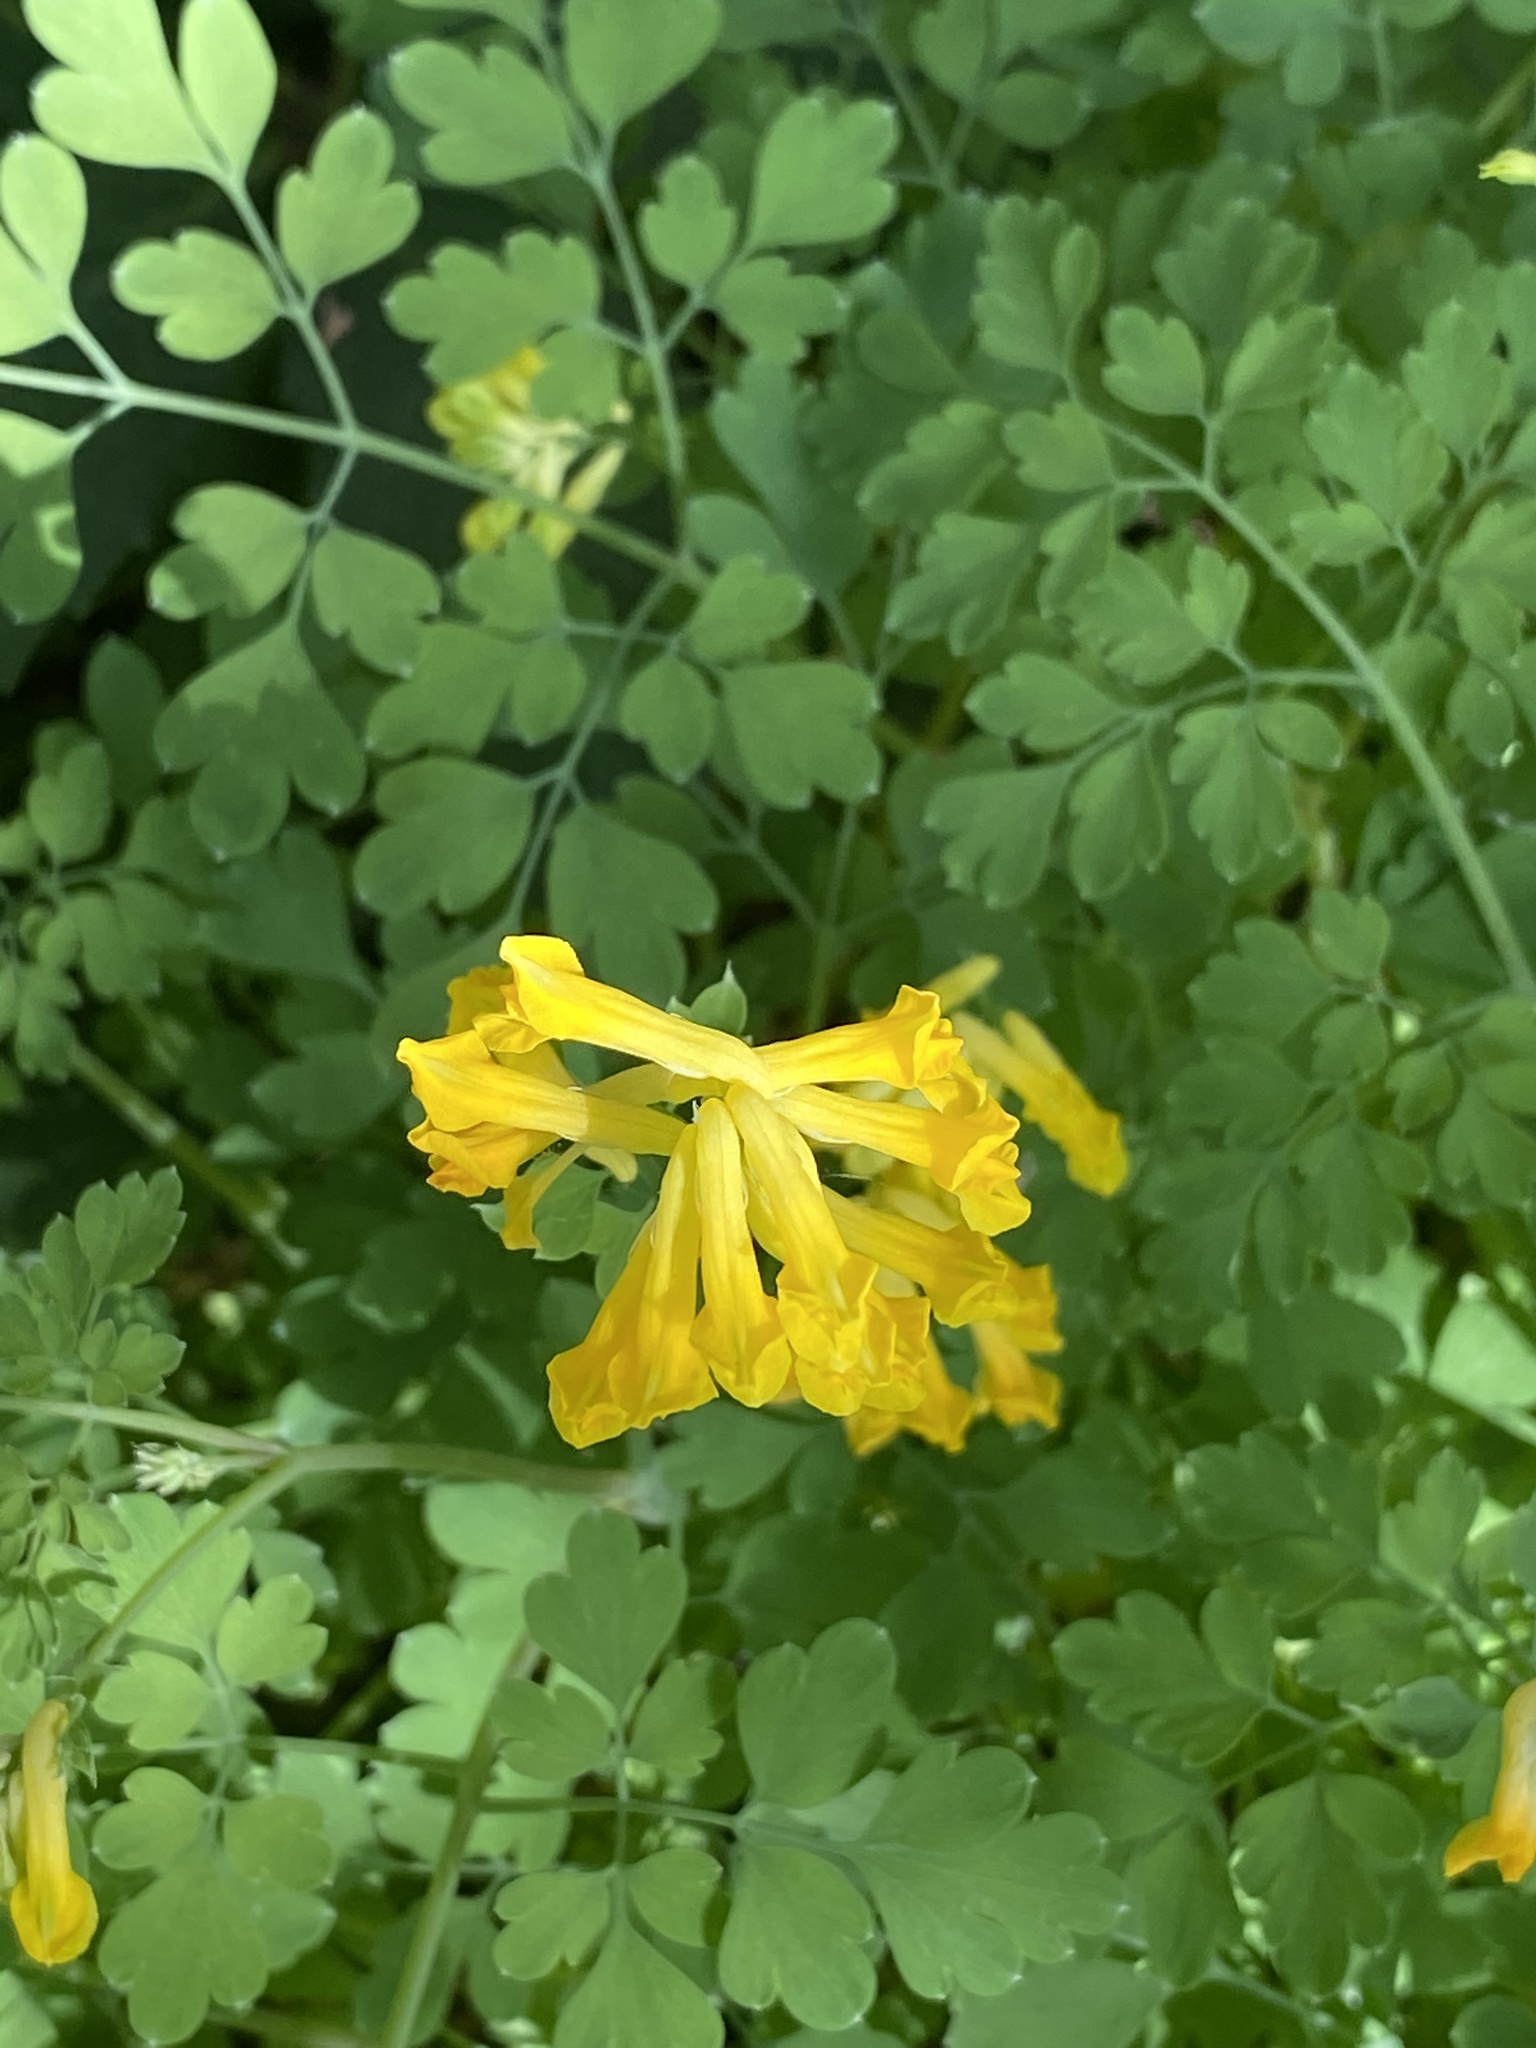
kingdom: Plantae
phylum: Tracheophyta
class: Magnoliopsida
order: Ranunculales
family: Papaveraceae
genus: Pseudofumaria
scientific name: Pseudofumaria lutea
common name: Yellow corydalis
